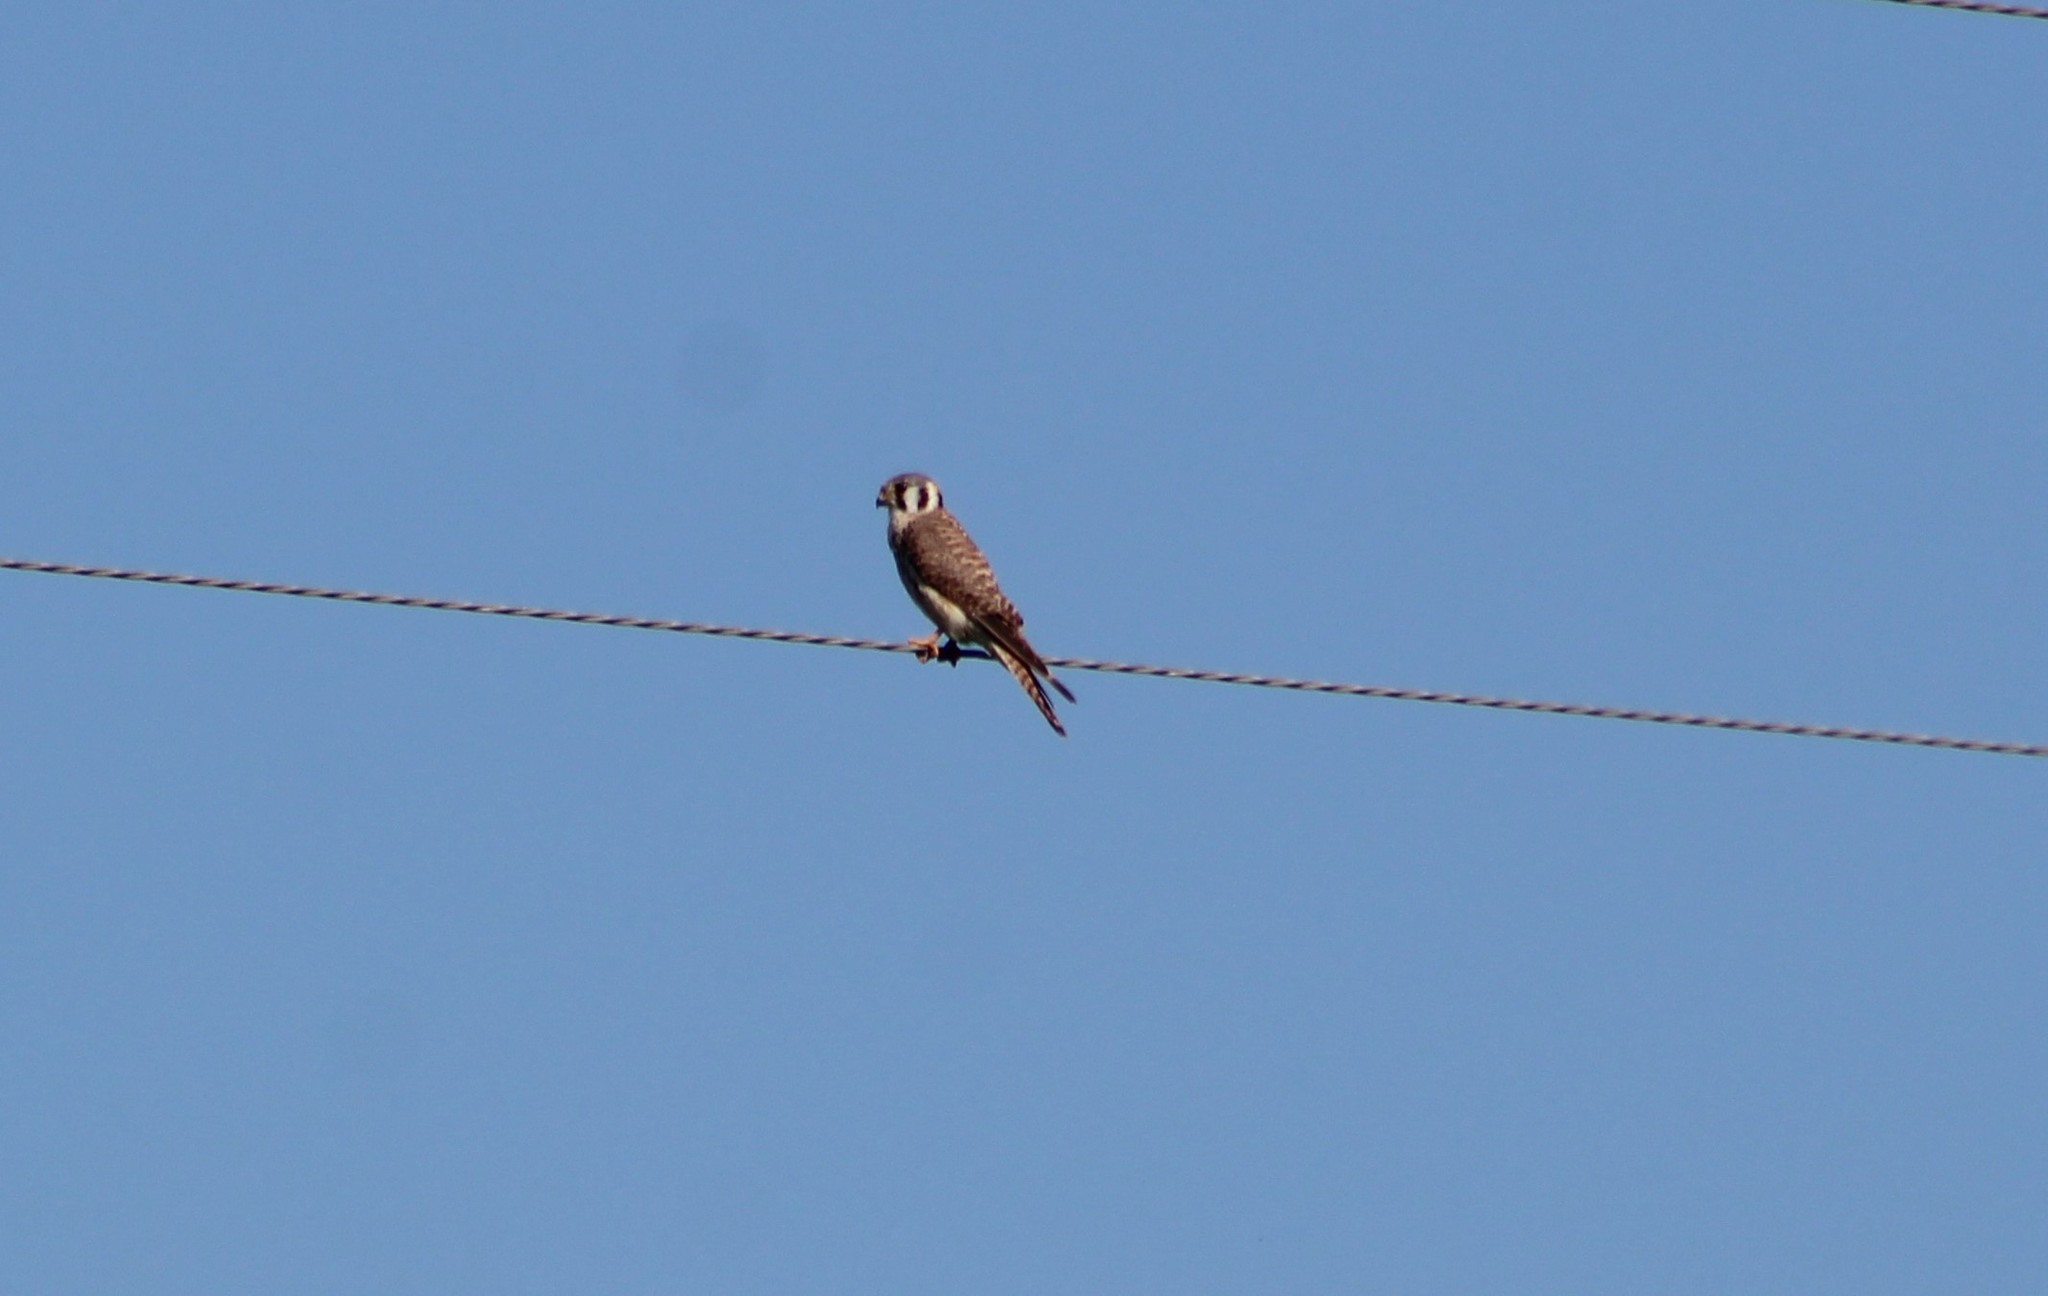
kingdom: Animalia
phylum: Chordata
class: Aves
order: Falconiformes
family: Falconidae
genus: Falco
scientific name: Falco sparverius
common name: American kestrel
